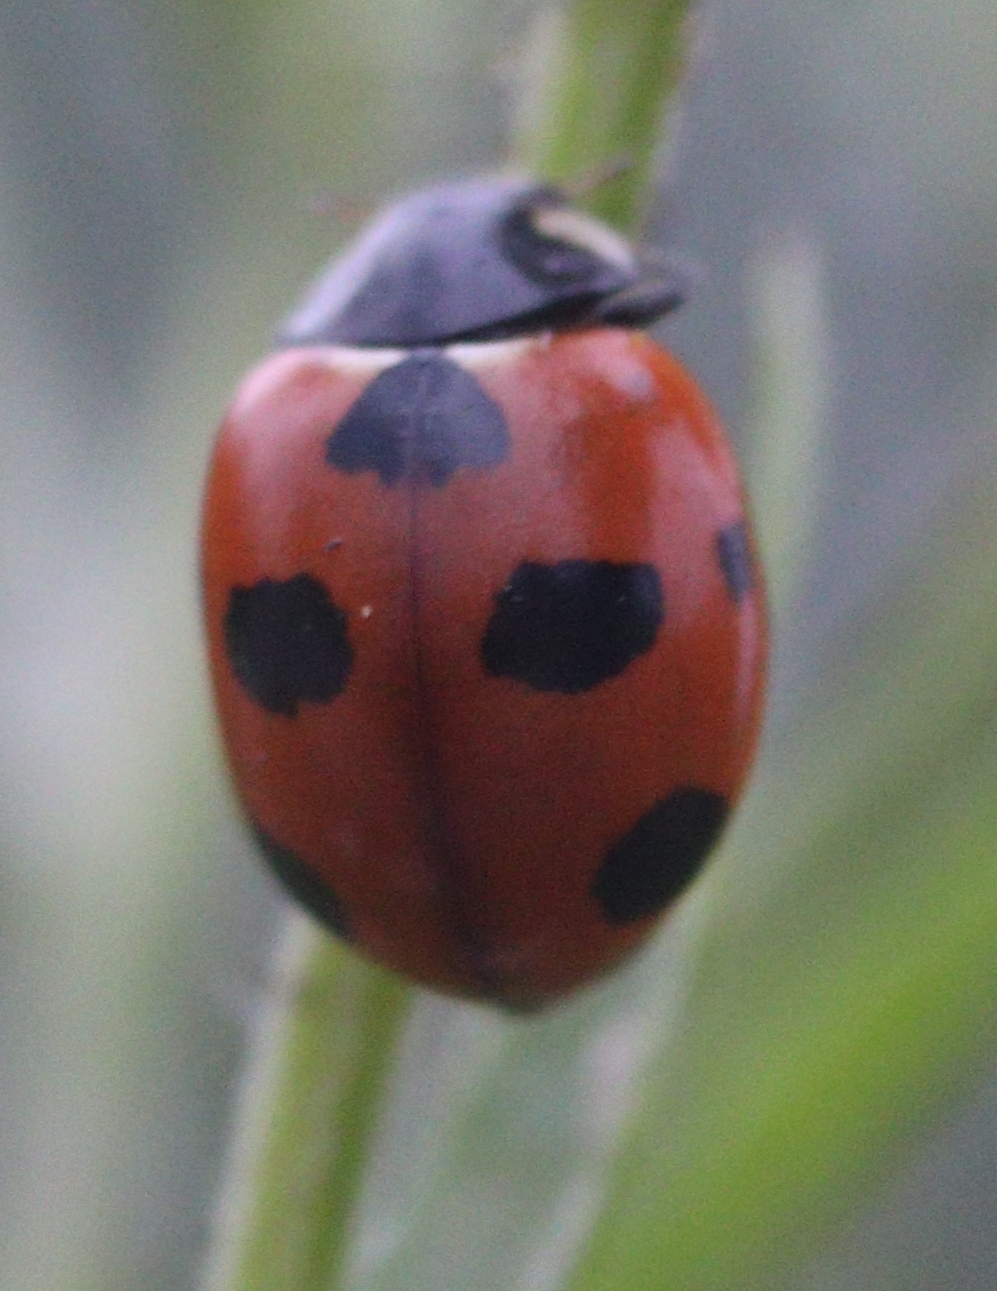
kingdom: Animalia
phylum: Arthropoda
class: Insecta
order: Coleoptera
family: Coccinellidae
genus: Coccinella
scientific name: Coccinella magnifica
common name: Scarce 7-spot ladybird
